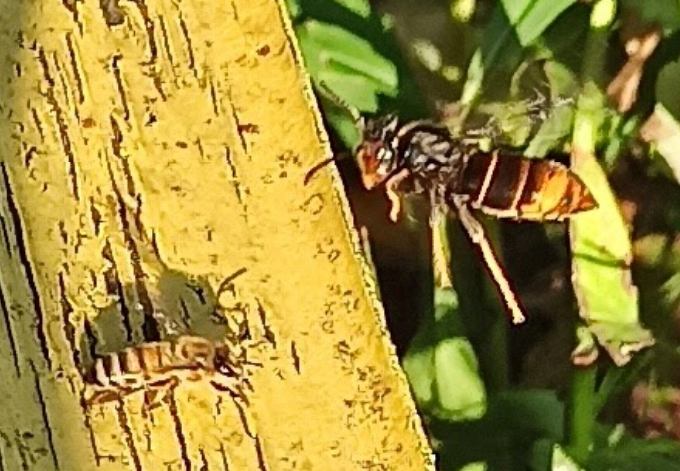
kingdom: Animalia
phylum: Arthropoda
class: Insecta
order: Hymenoptera
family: Vespidae
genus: Vespa
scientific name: Vespa velutina
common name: Asian hornet
